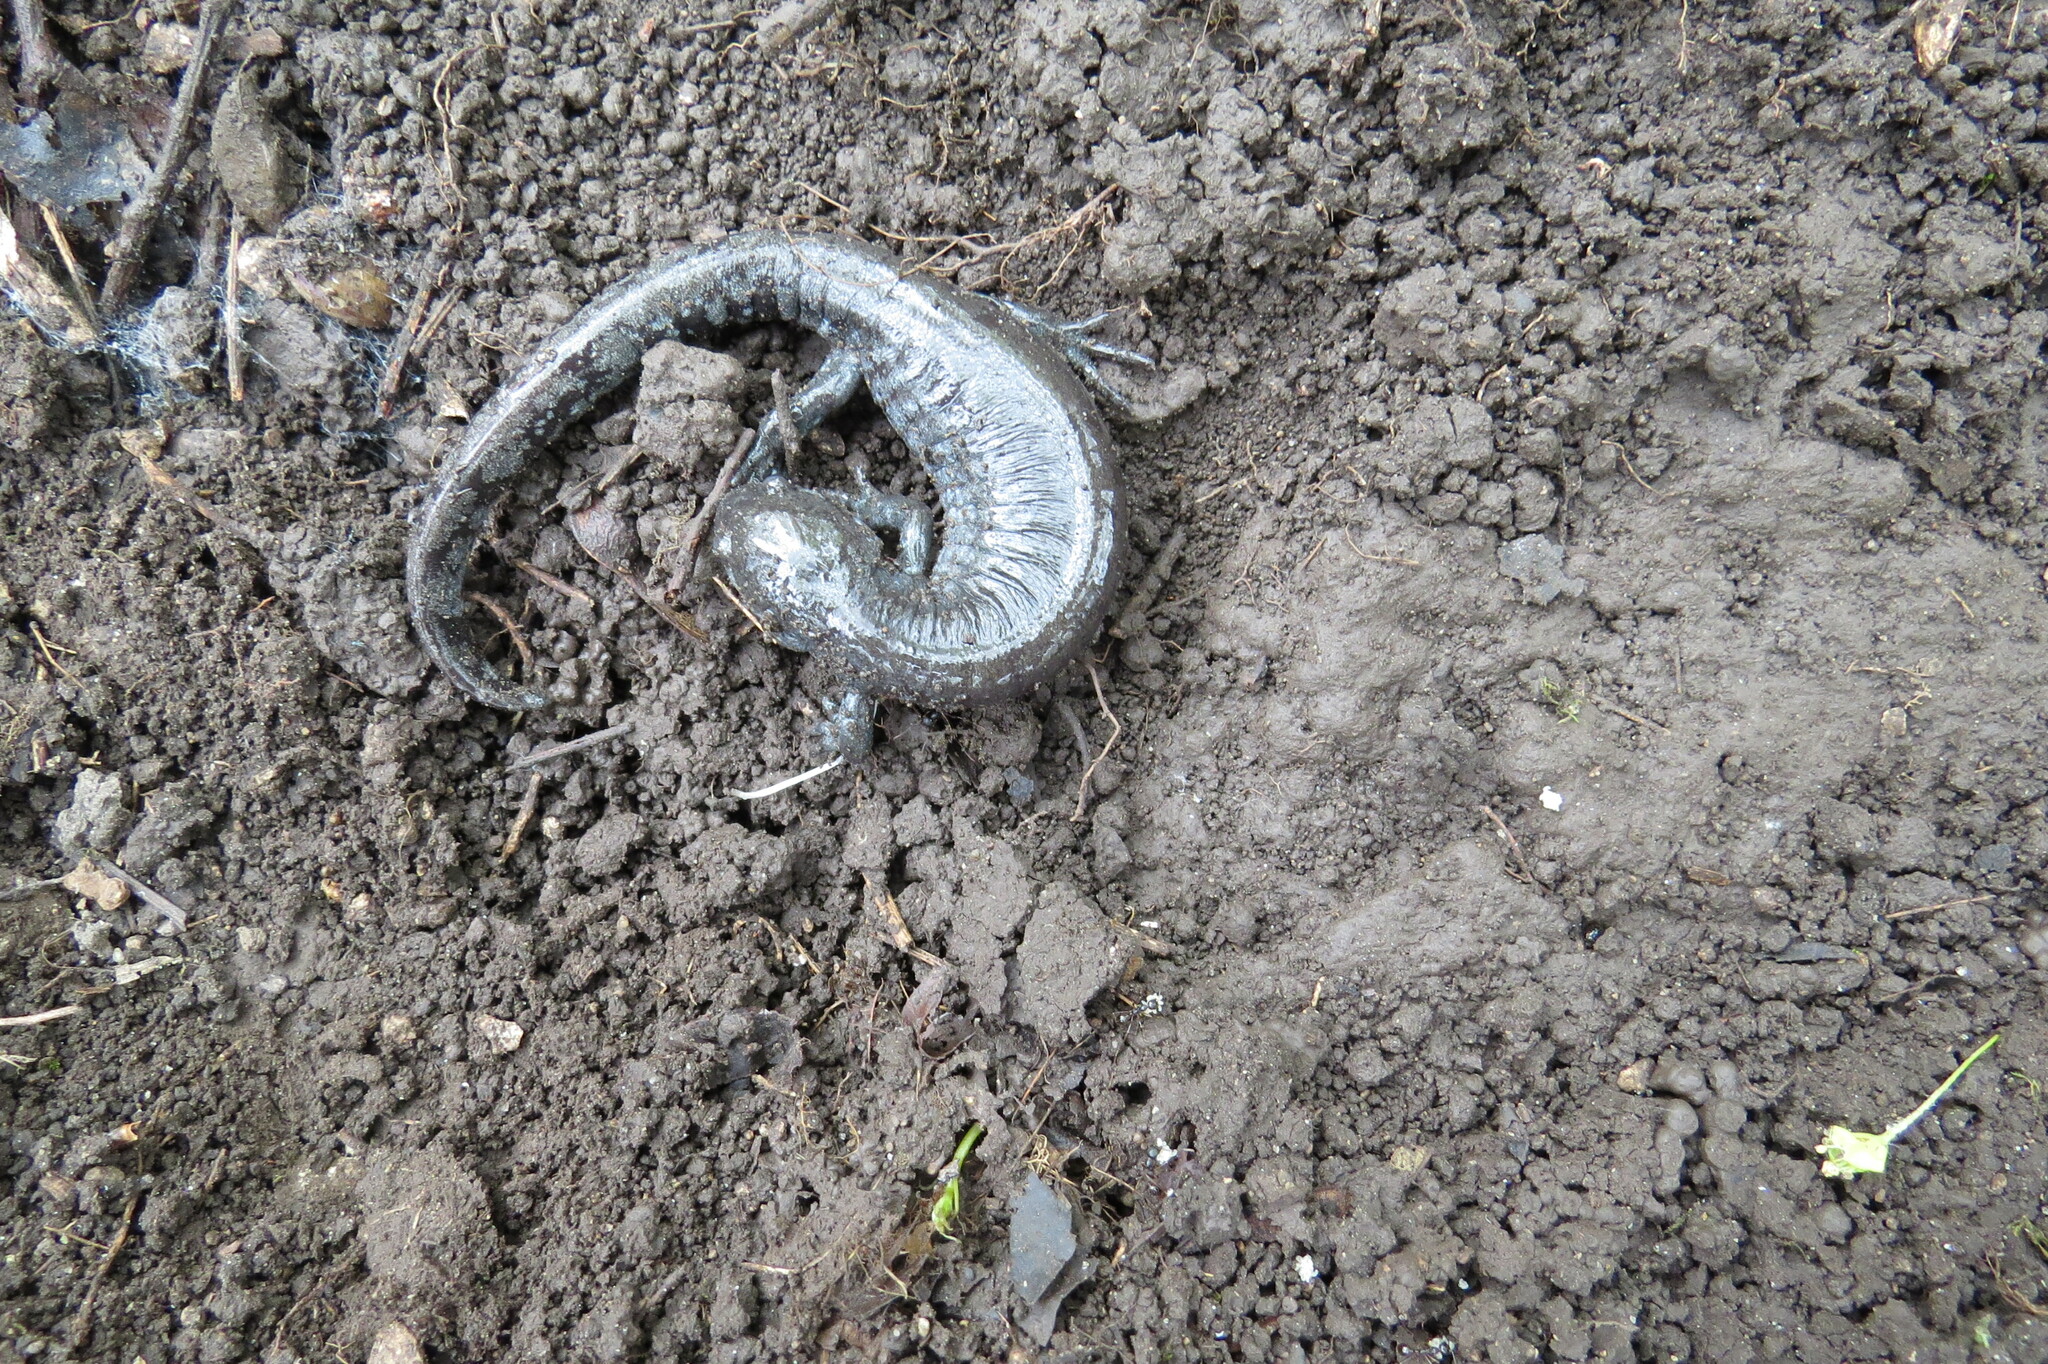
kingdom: Animalia
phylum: Chordata
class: Amphibia
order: Caudata
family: Ambystomatidae
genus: Ambystoma
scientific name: Ambystoma texanum
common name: Small-mouth salamander
